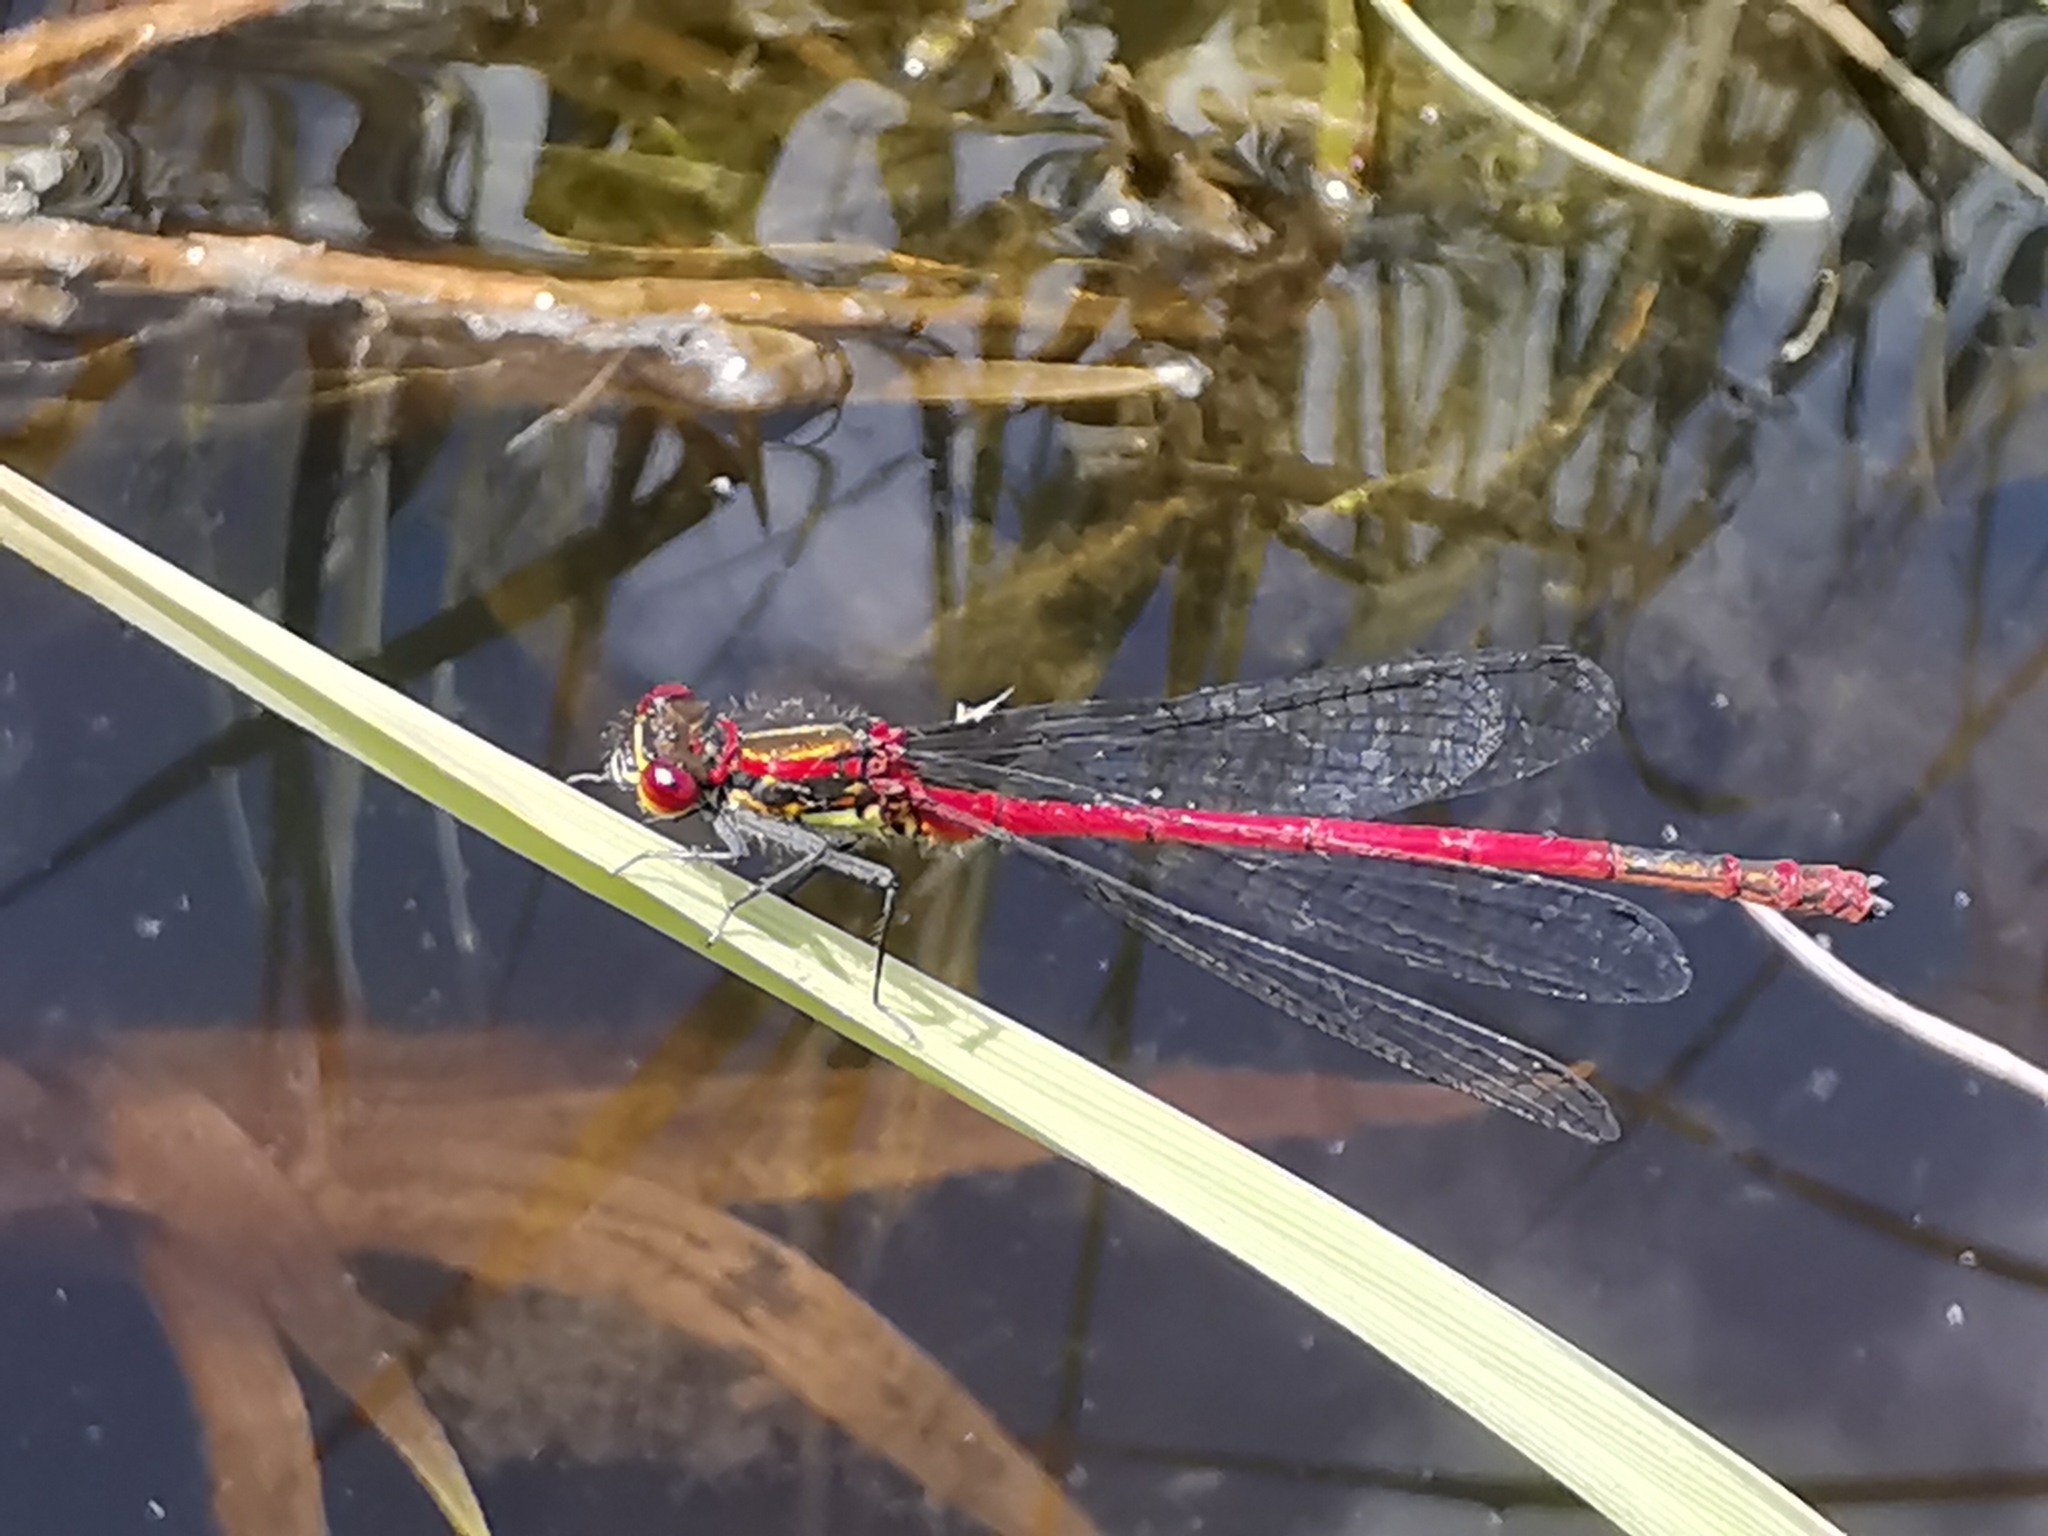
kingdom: Animalia
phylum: Arthropoda
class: Insecta
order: Odonata
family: Coenagrionidae
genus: Pyrrhosoma
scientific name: Pyrrhosoma nymphula
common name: Large red damsel
